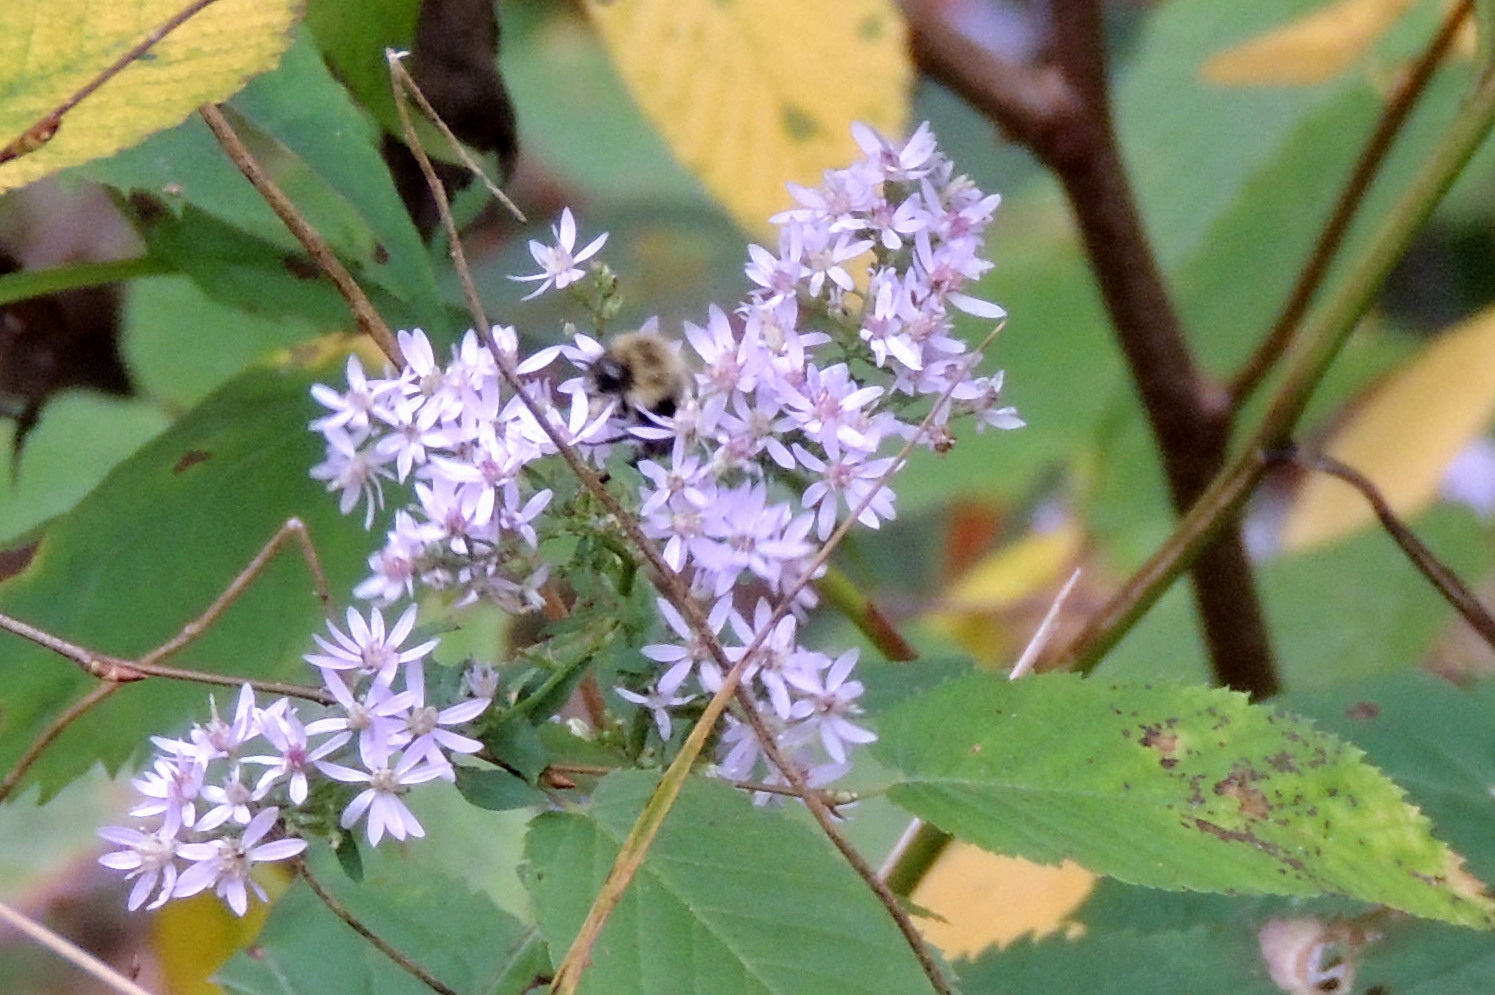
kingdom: Animalia
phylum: Arthropoda
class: Insecta
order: Hymenoptera
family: Apidae
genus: Bombus
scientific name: Bombus impatiens
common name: Common eastern bumble bee
